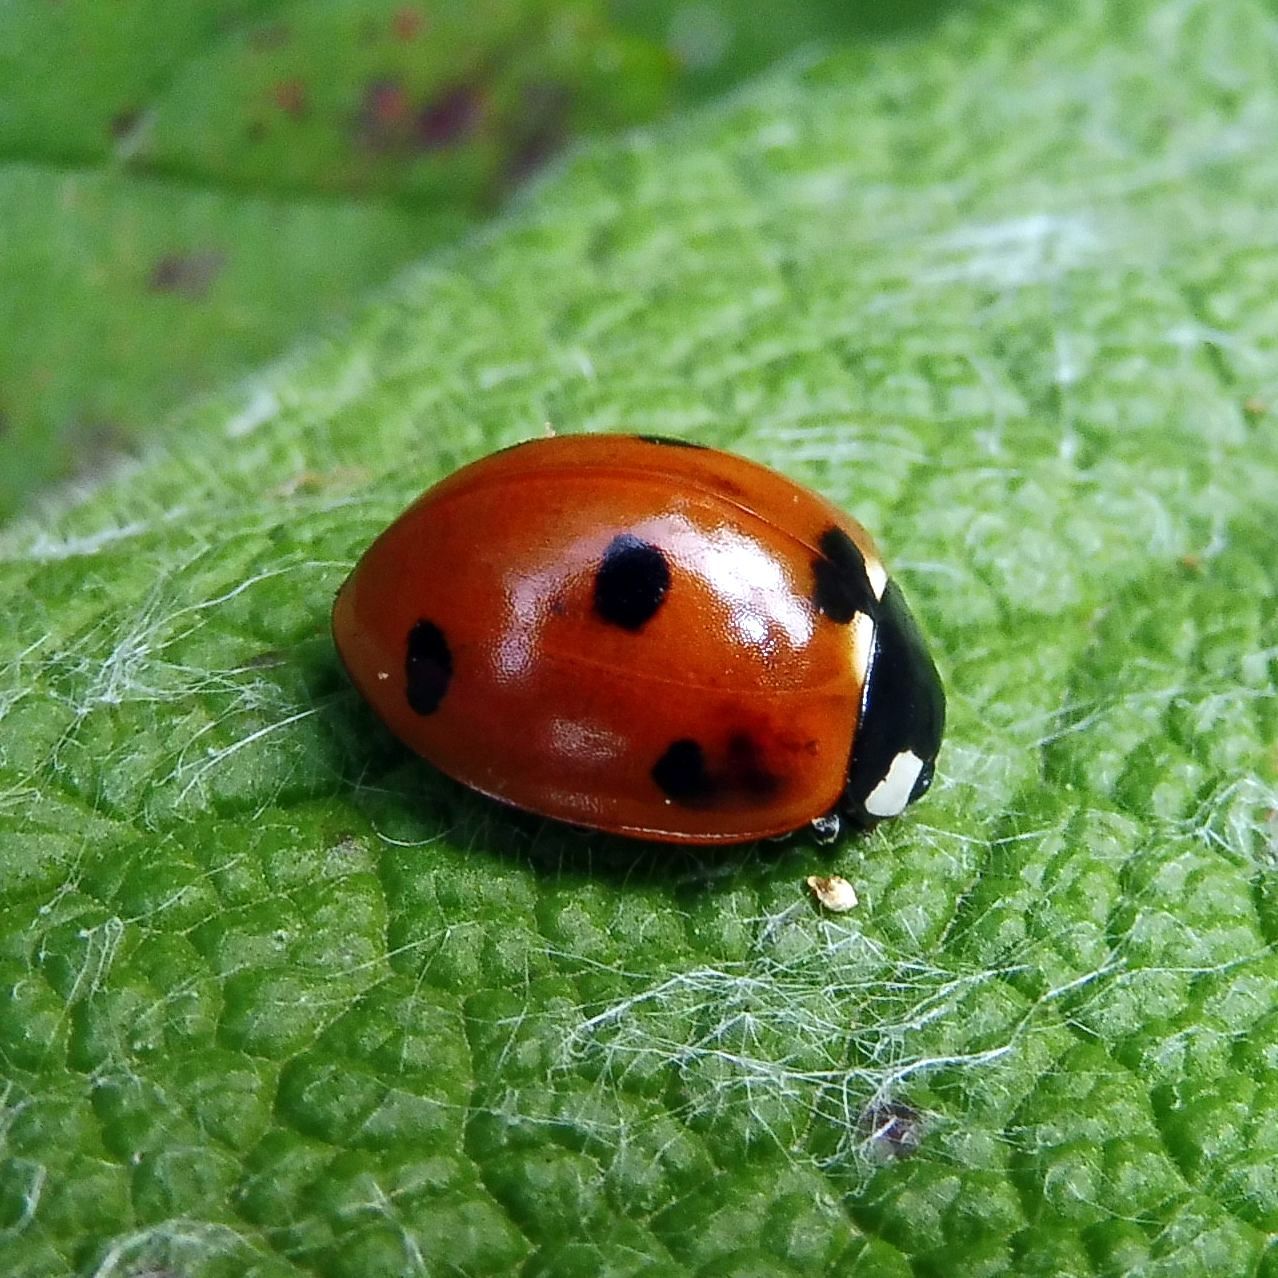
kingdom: Animalia
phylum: Arthropoda
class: Insecta
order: Coleoptera
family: Coccinellidae
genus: Coccinella
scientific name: Coccinella septempunctata
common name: Sevenspotted lady beetle
